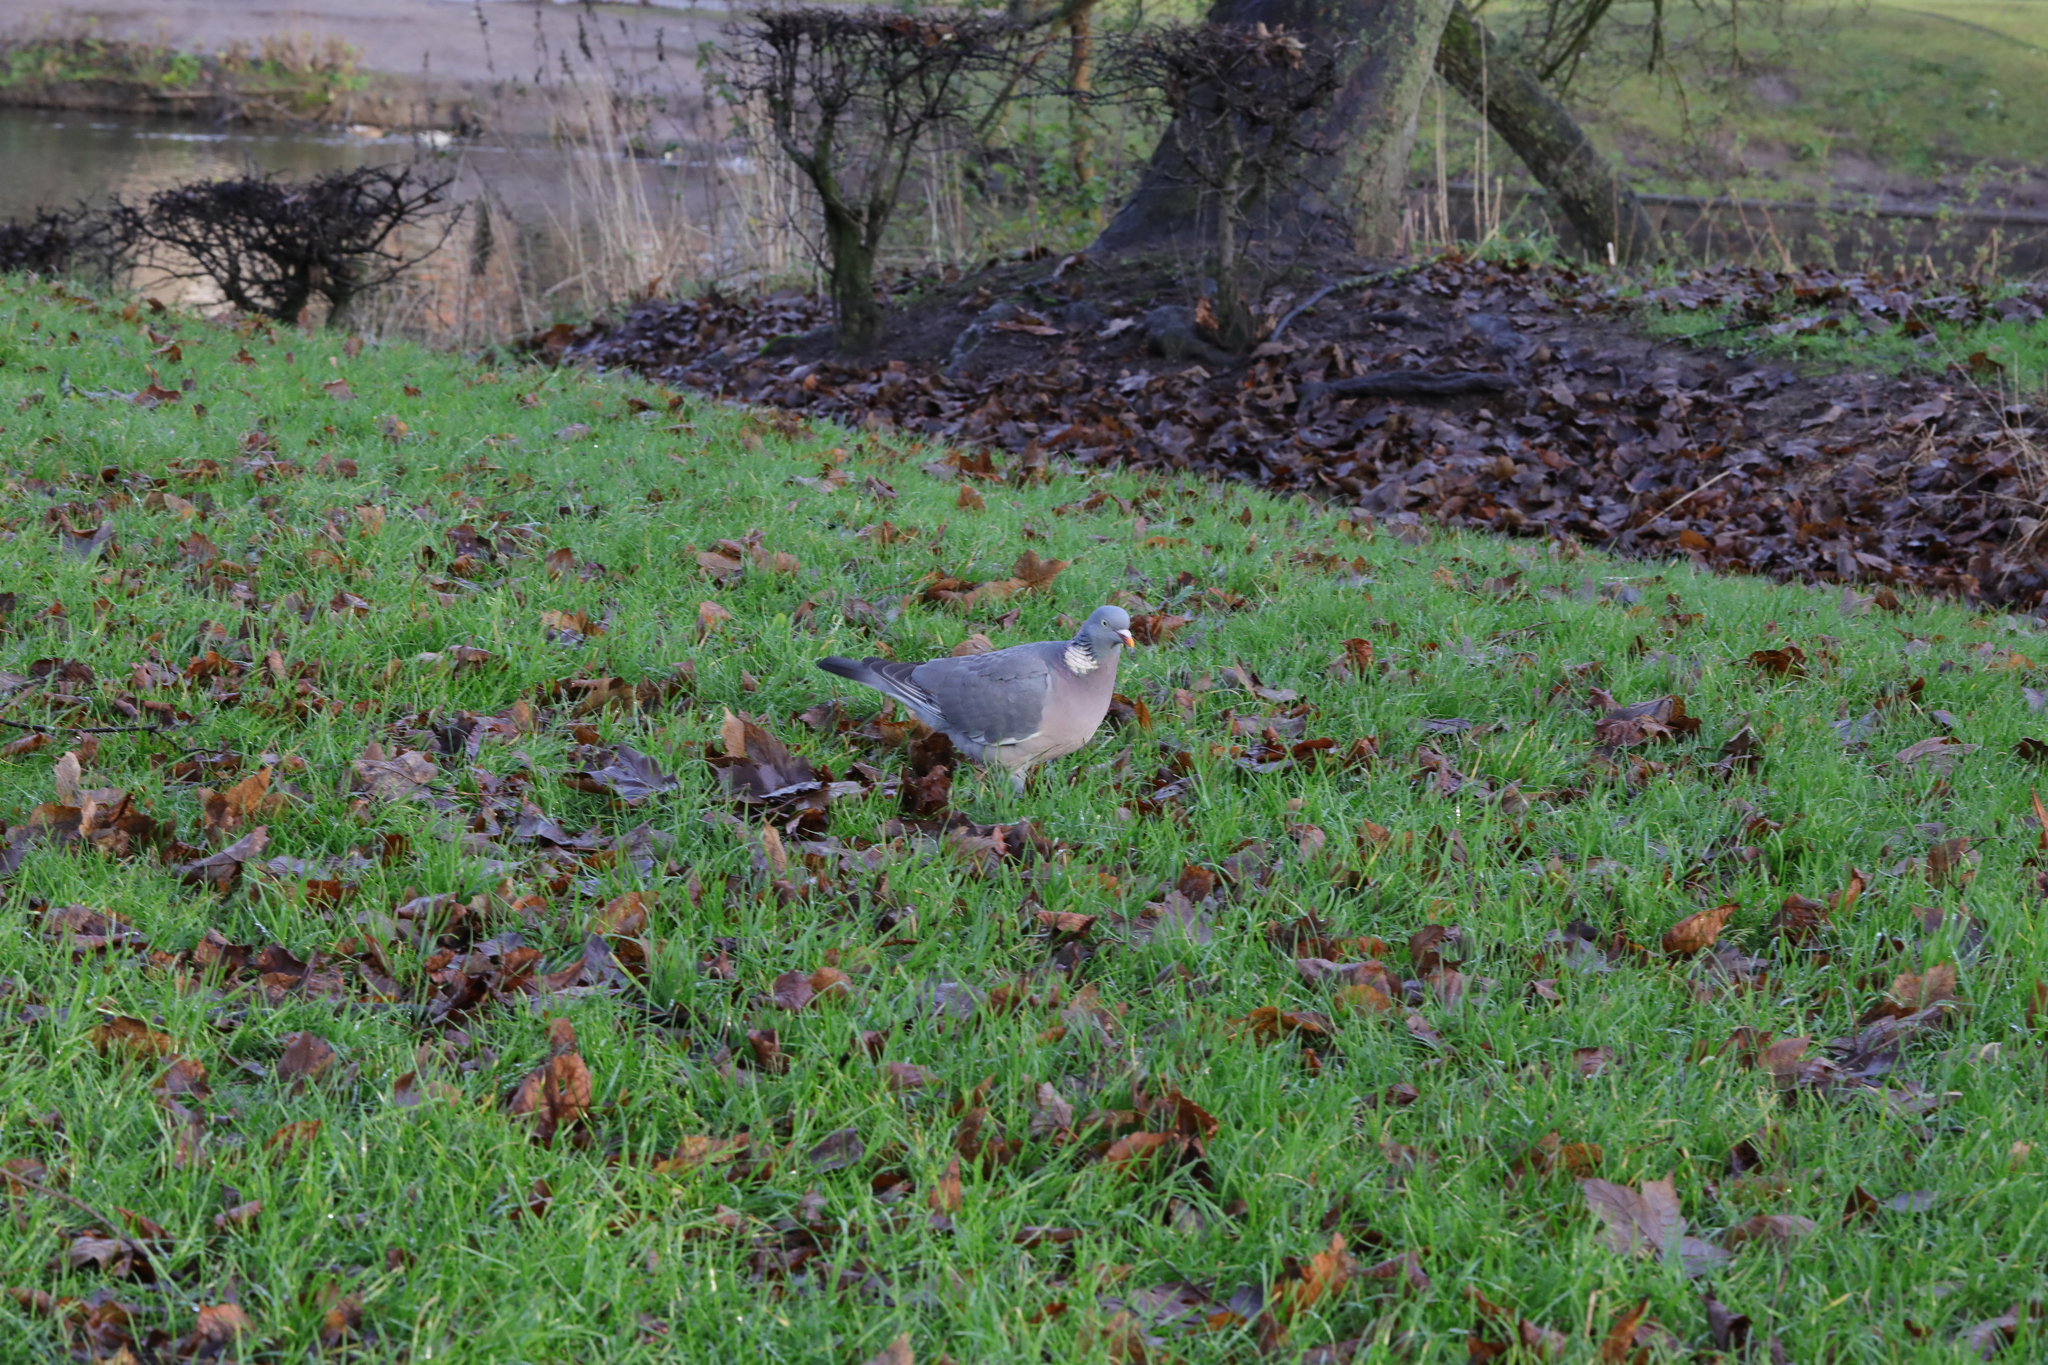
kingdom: Animalia
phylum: Chordata
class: Aves
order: Columbiformes
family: Columbidae
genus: Columba
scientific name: Columba palumbus
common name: Common wood pigeon
